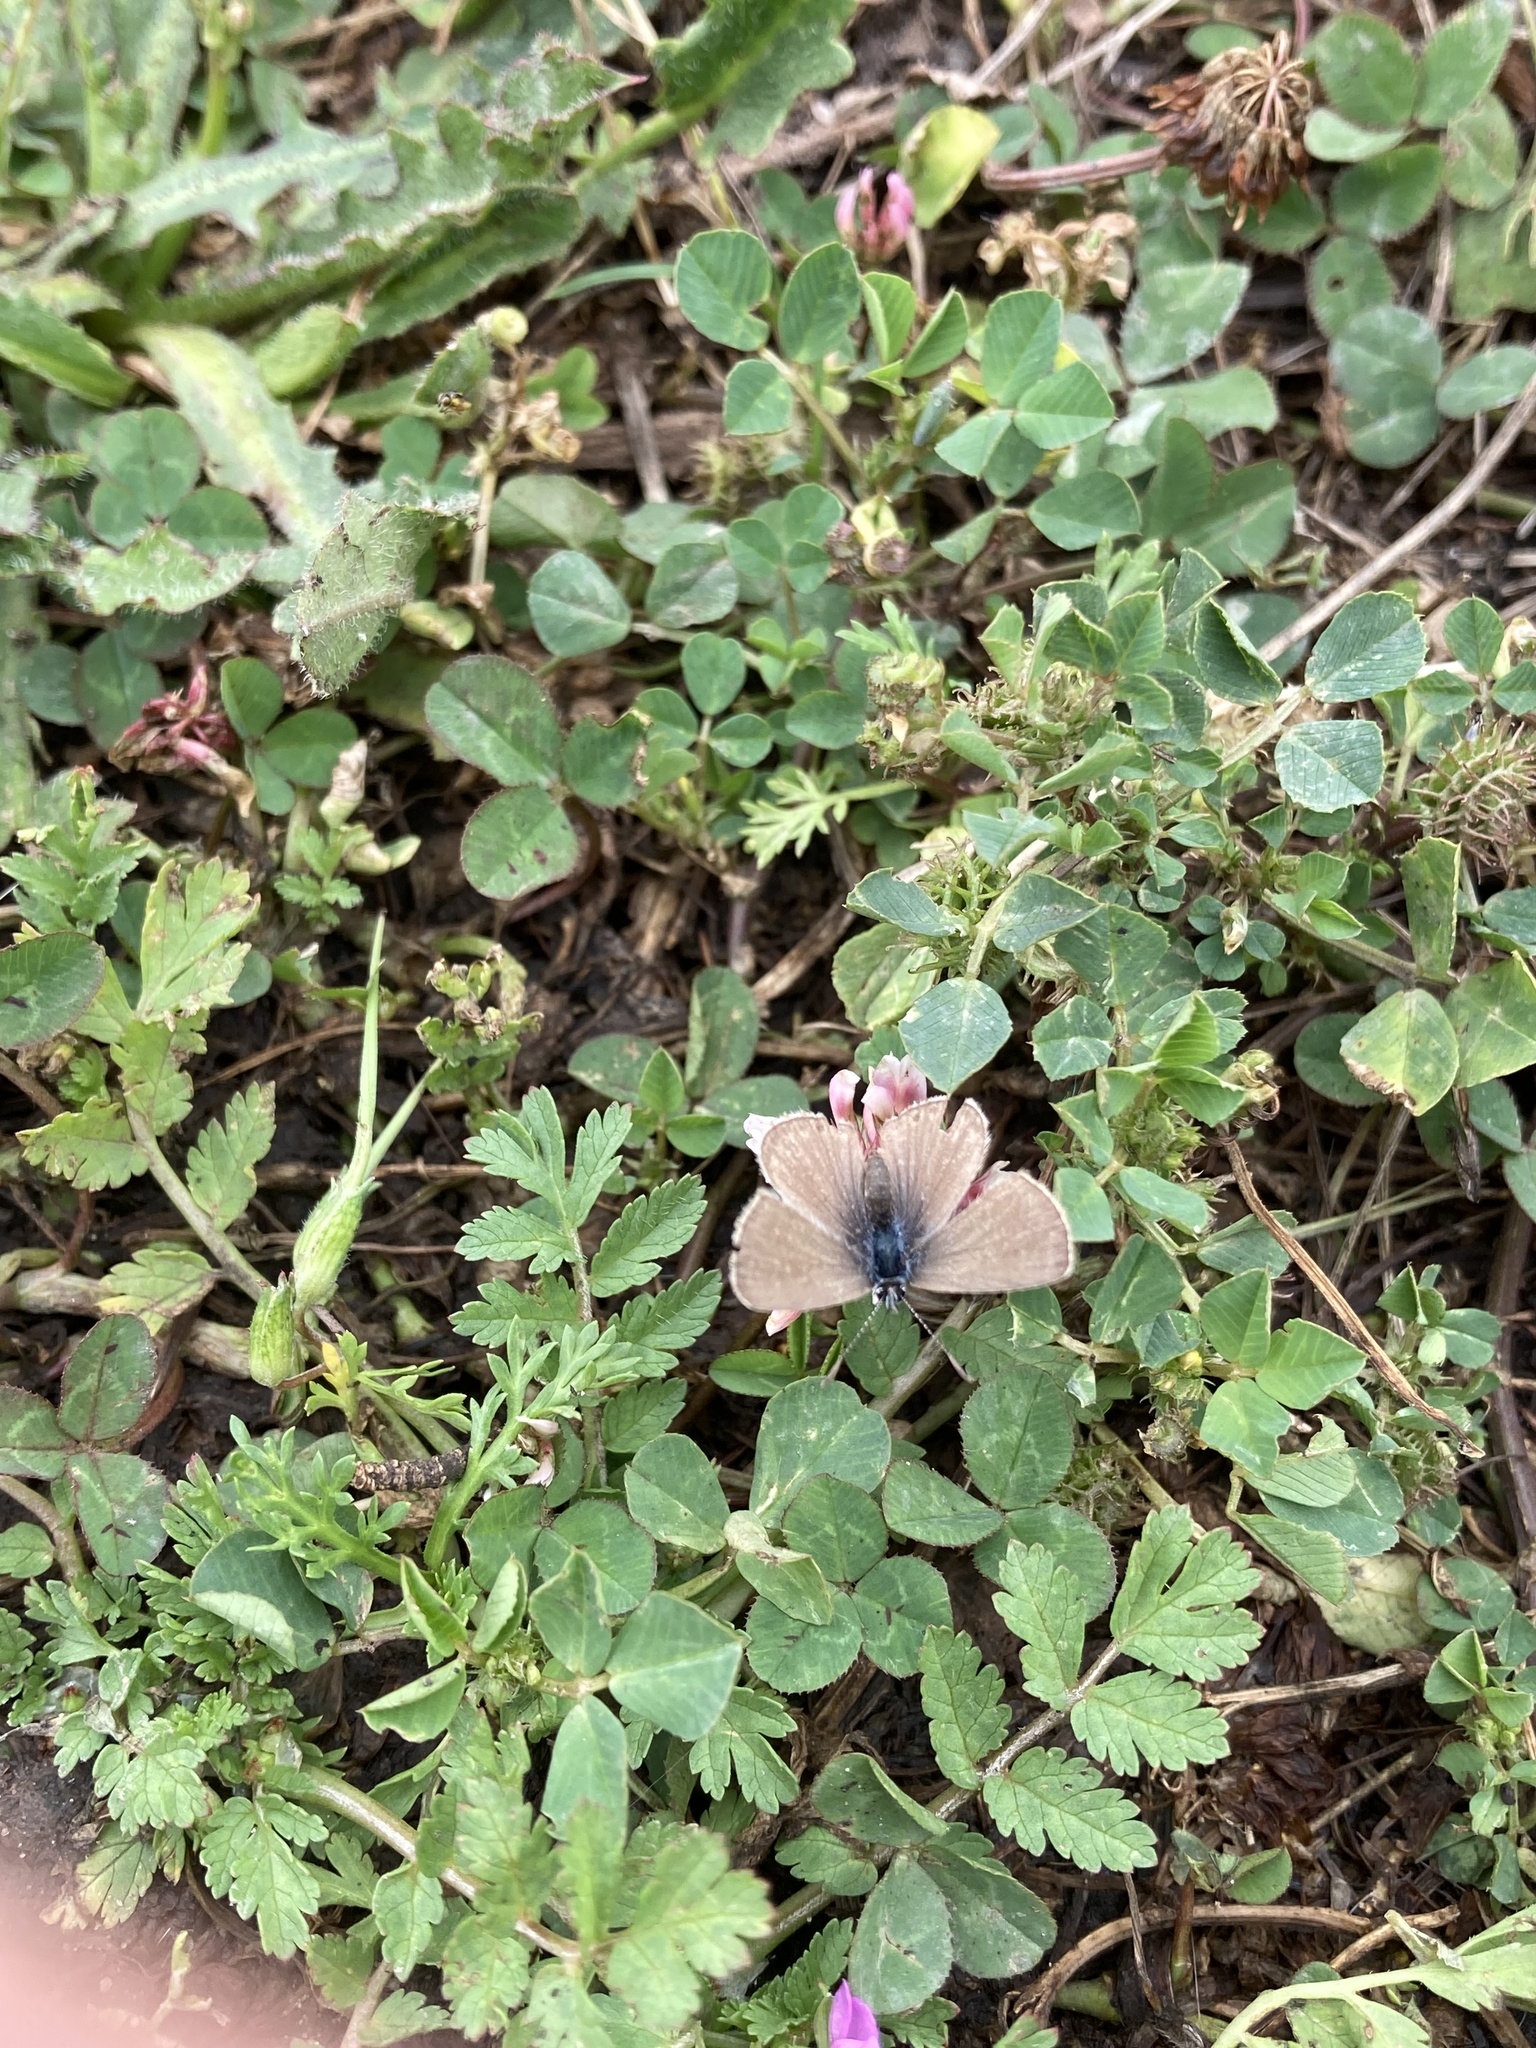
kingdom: Animalia
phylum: Arthropoda
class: Insecta
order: Lepidoptera
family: Lycaenidae
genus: Hemiargus
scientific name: Hemiargus hanno
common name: Common blue
